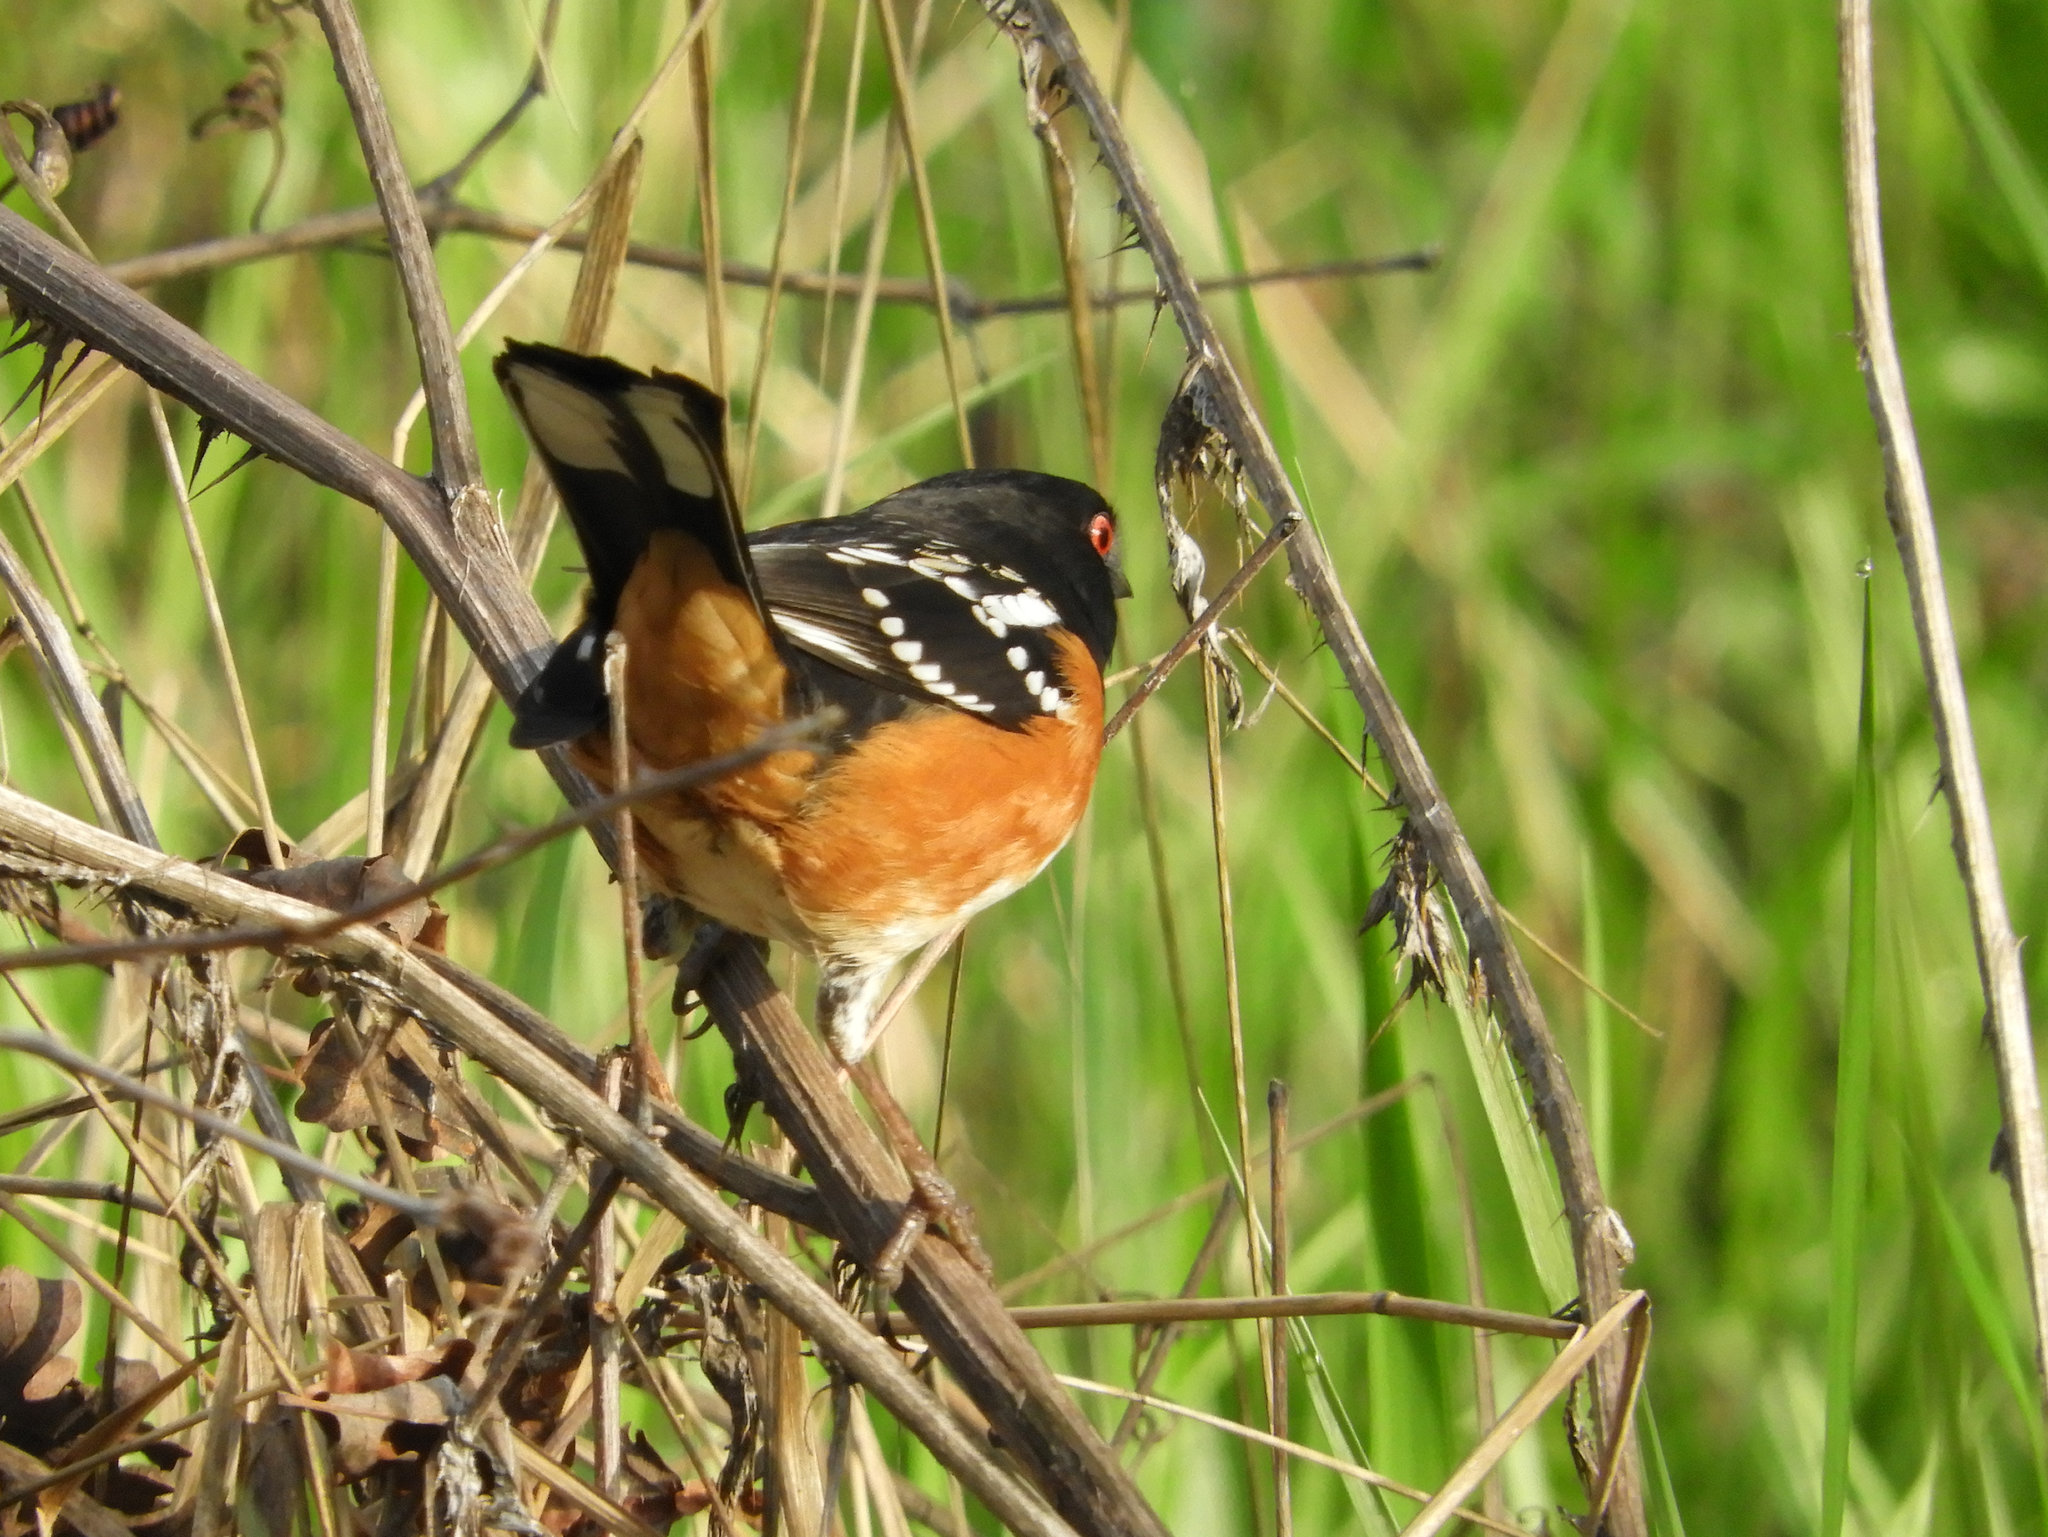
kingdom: Animalia
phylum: Chordata
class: Aves
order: Passeriformes
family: Passerellidae
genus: Pipilo
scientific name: Pipilo maculatus
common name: Spotted towhee
